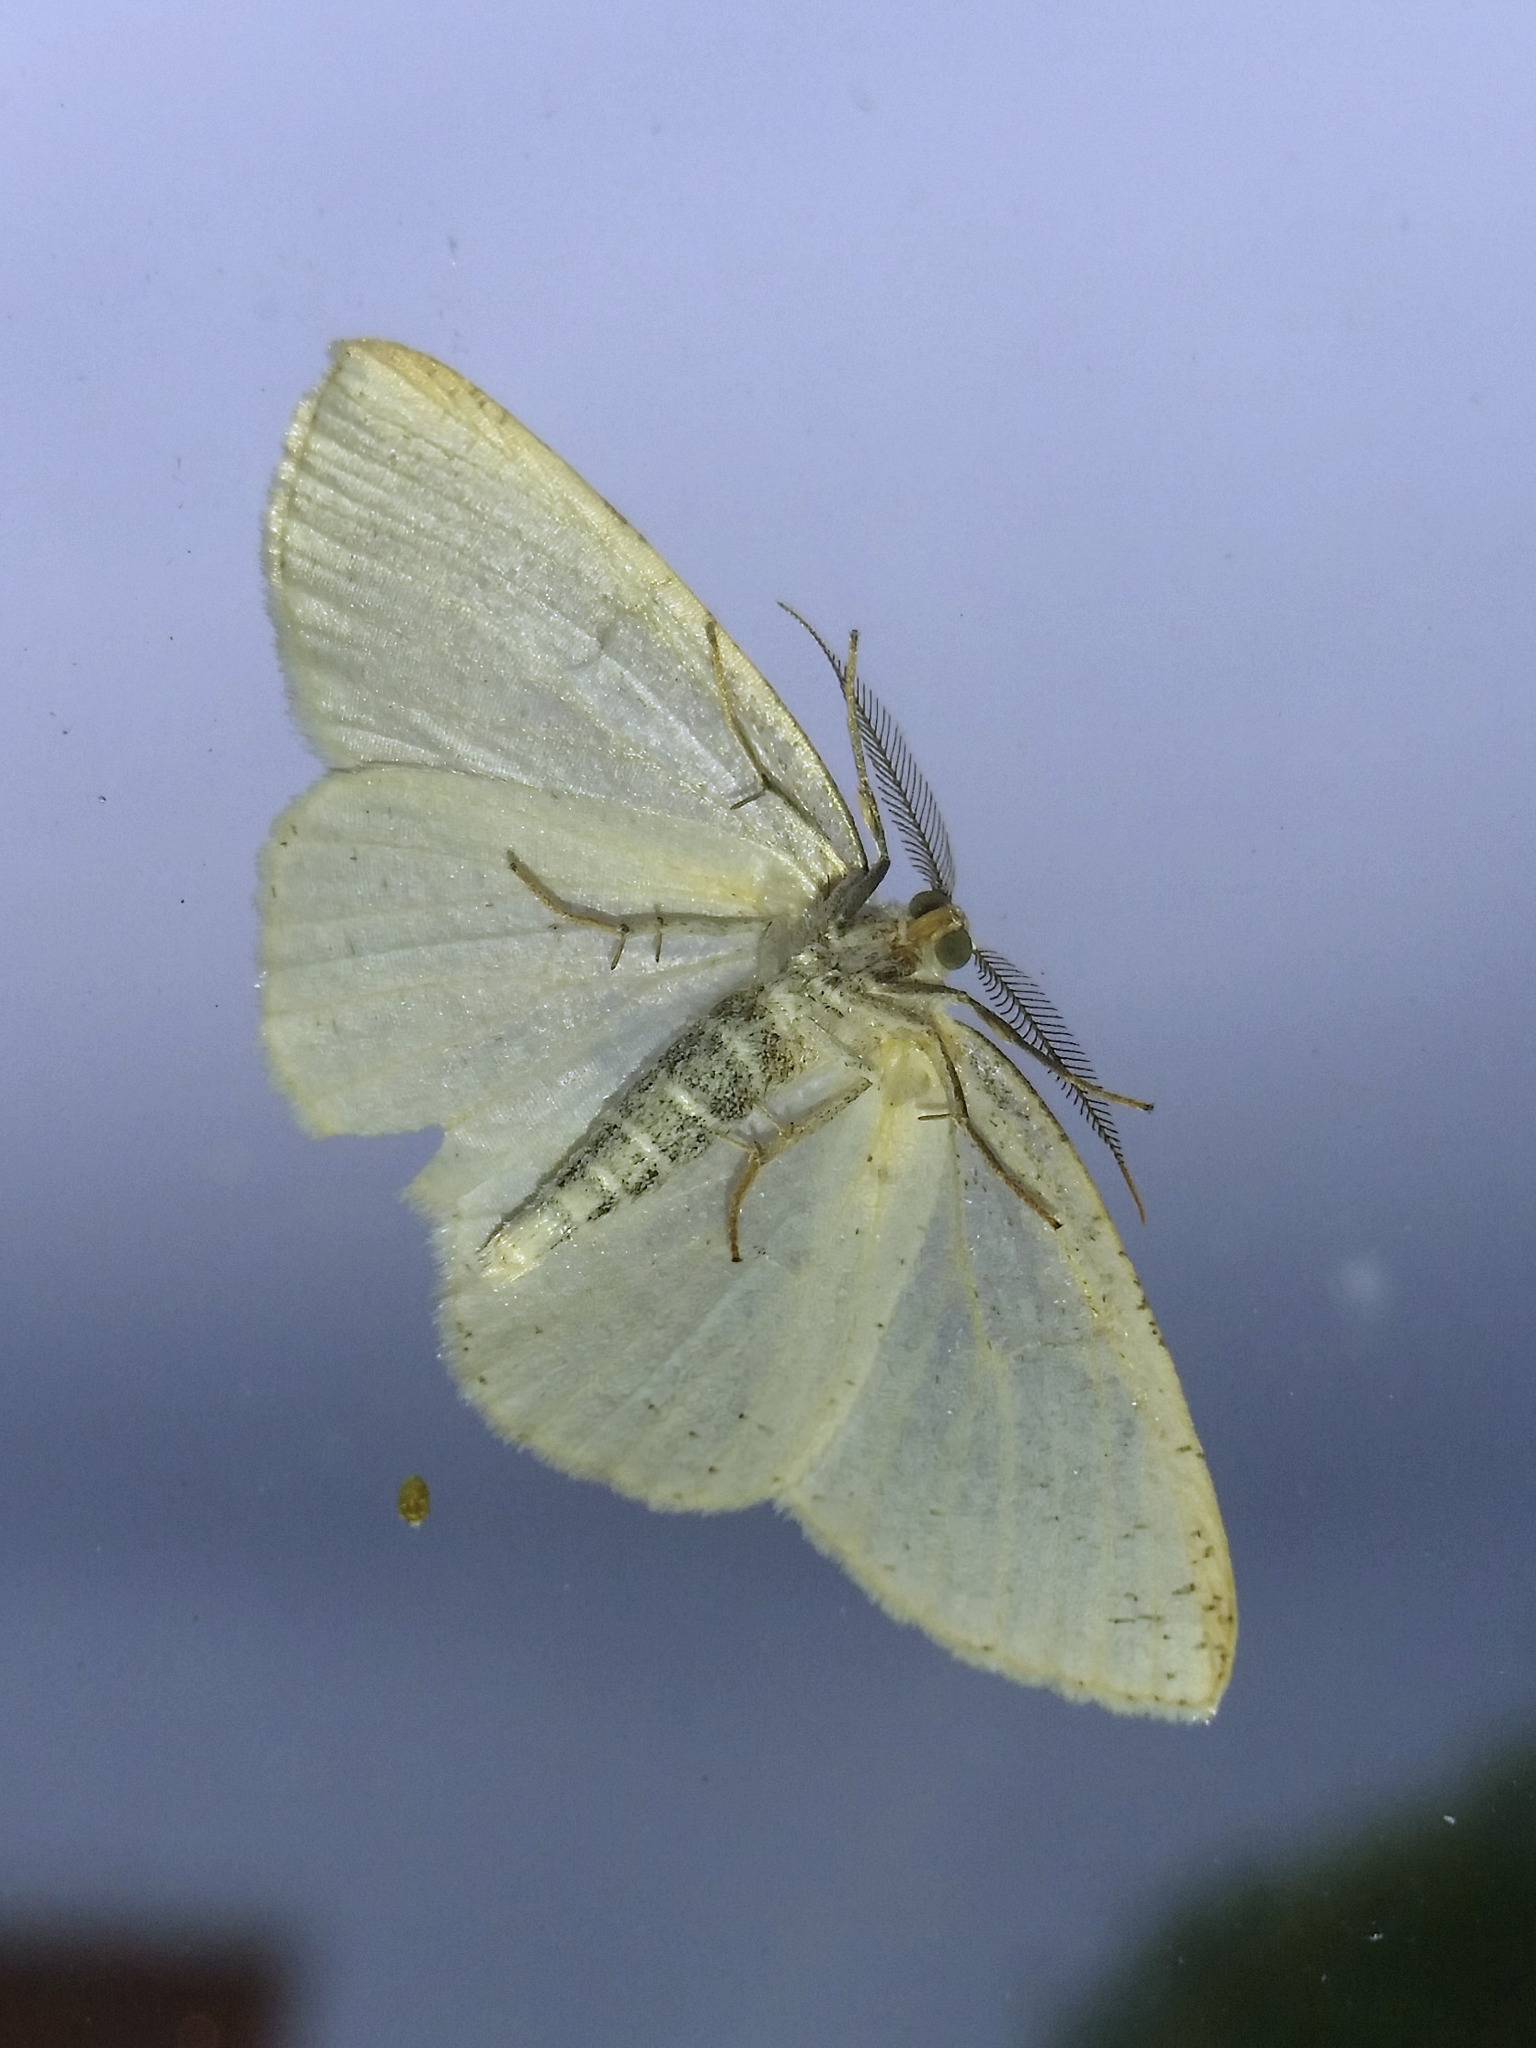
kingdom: Animalia
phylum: Arthropoda
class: Insecta
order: Lepidoptera
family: Geometridae
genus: Cabera
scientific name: Cabera pusaria
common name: Common white wave
